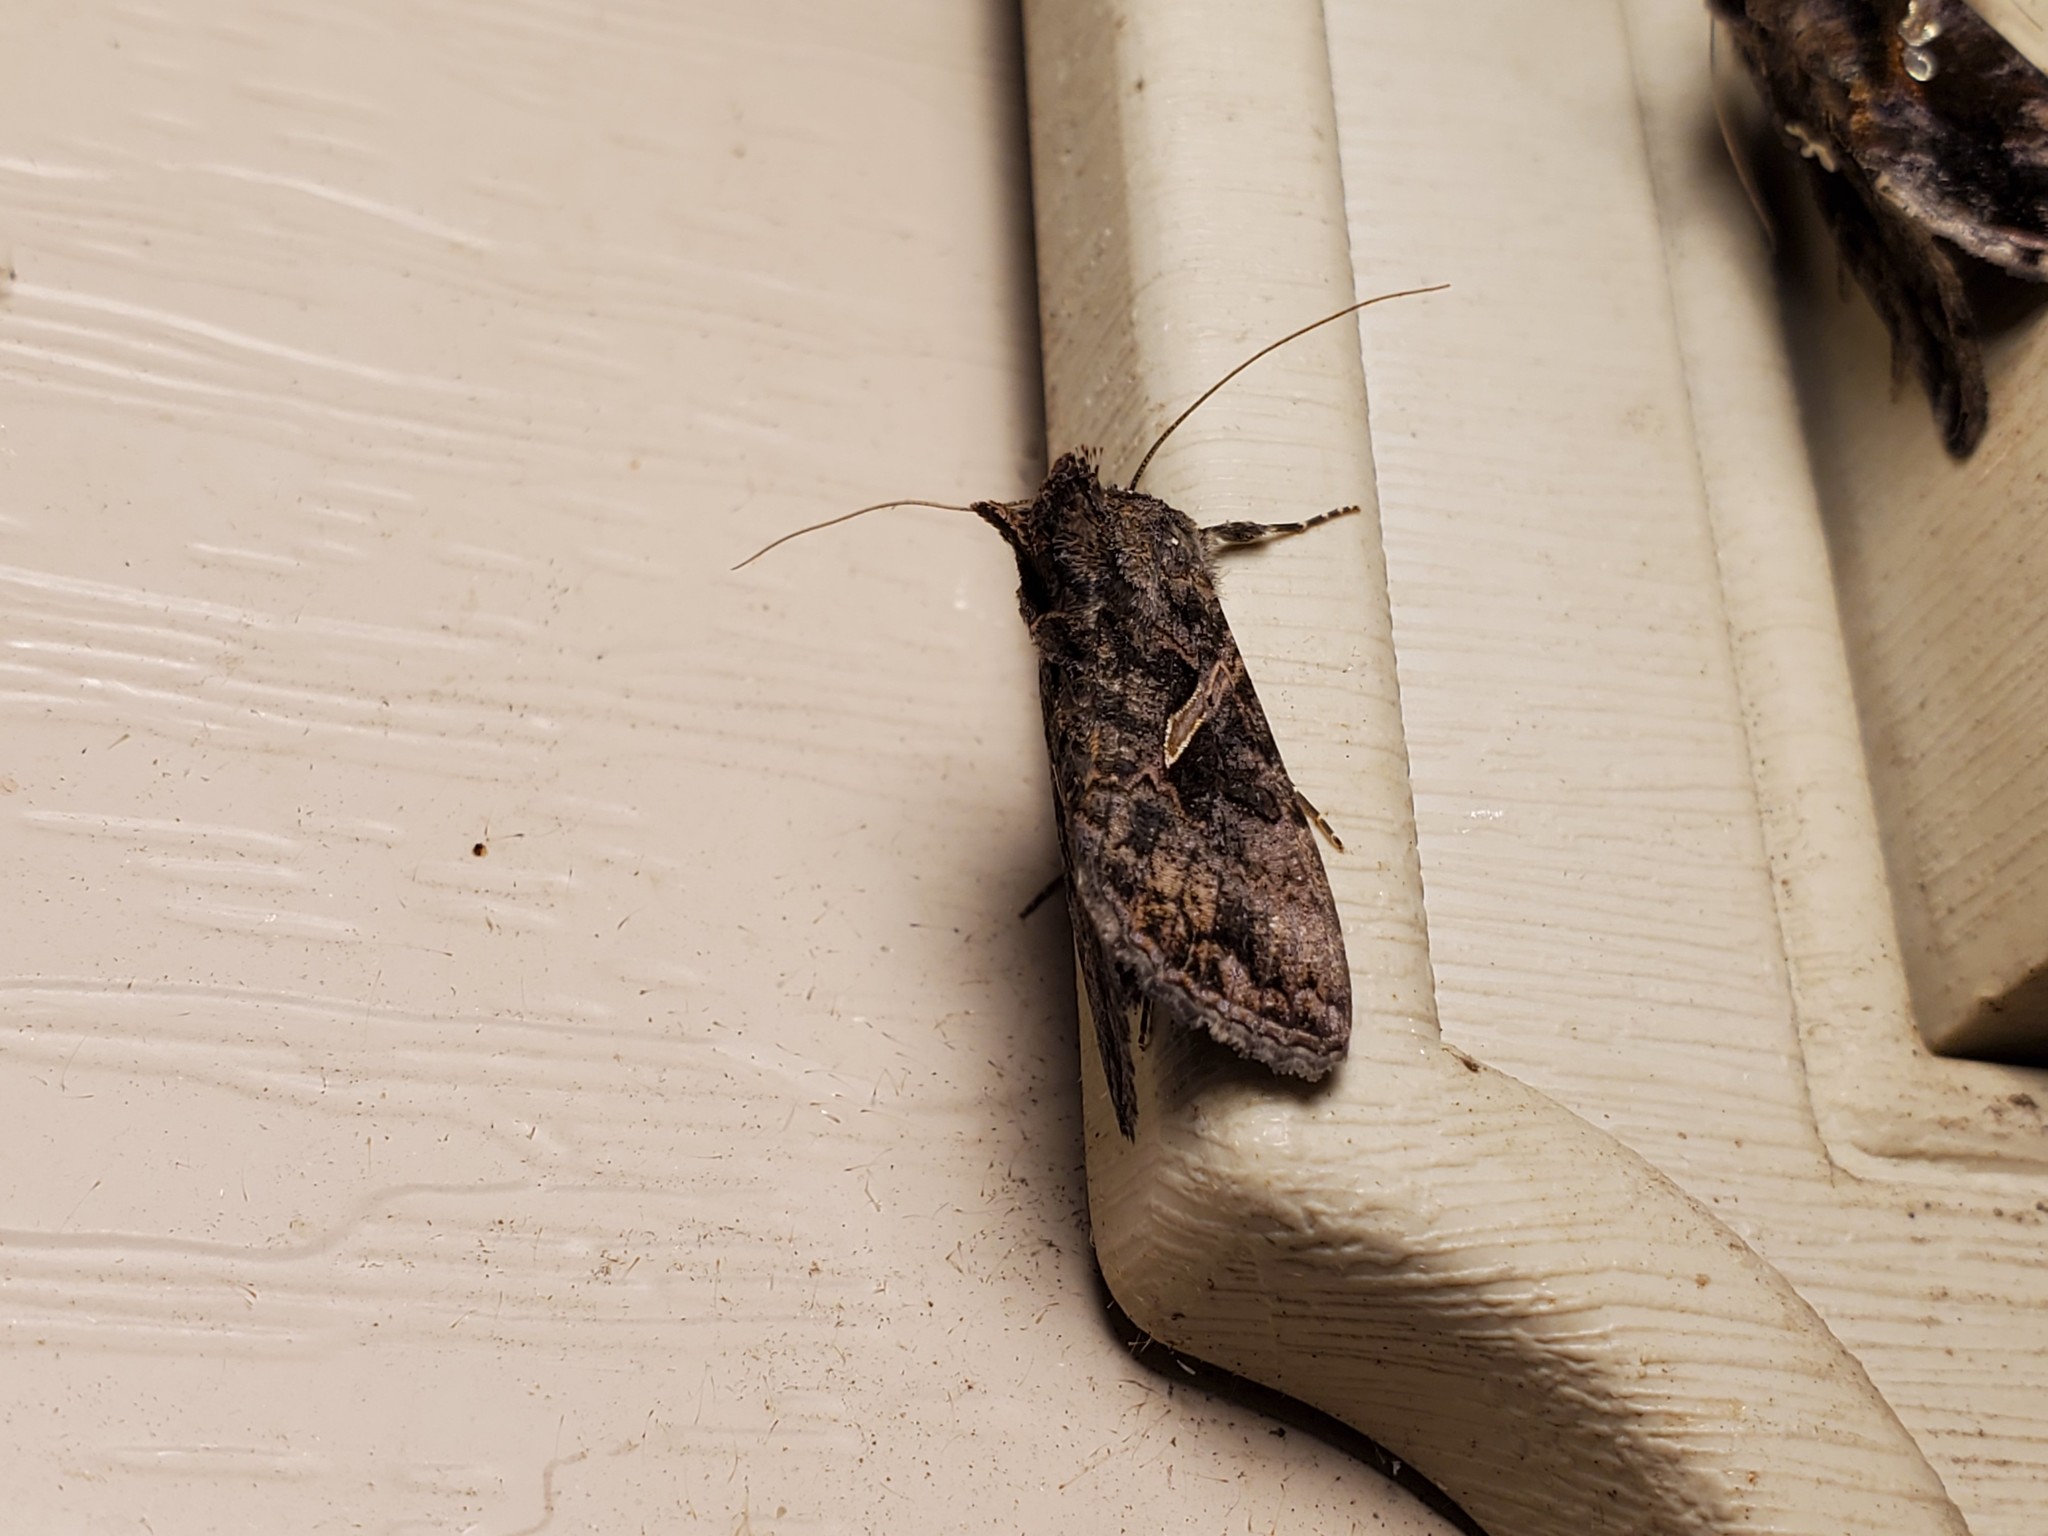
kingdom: Animalia
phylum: Arthropoda
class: Insecta
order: Lepidoptera
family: Noctuidae
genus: Ctenoplusia
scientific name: Ctenoplusia oxygramma
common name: Sharp-stigma looper moth
